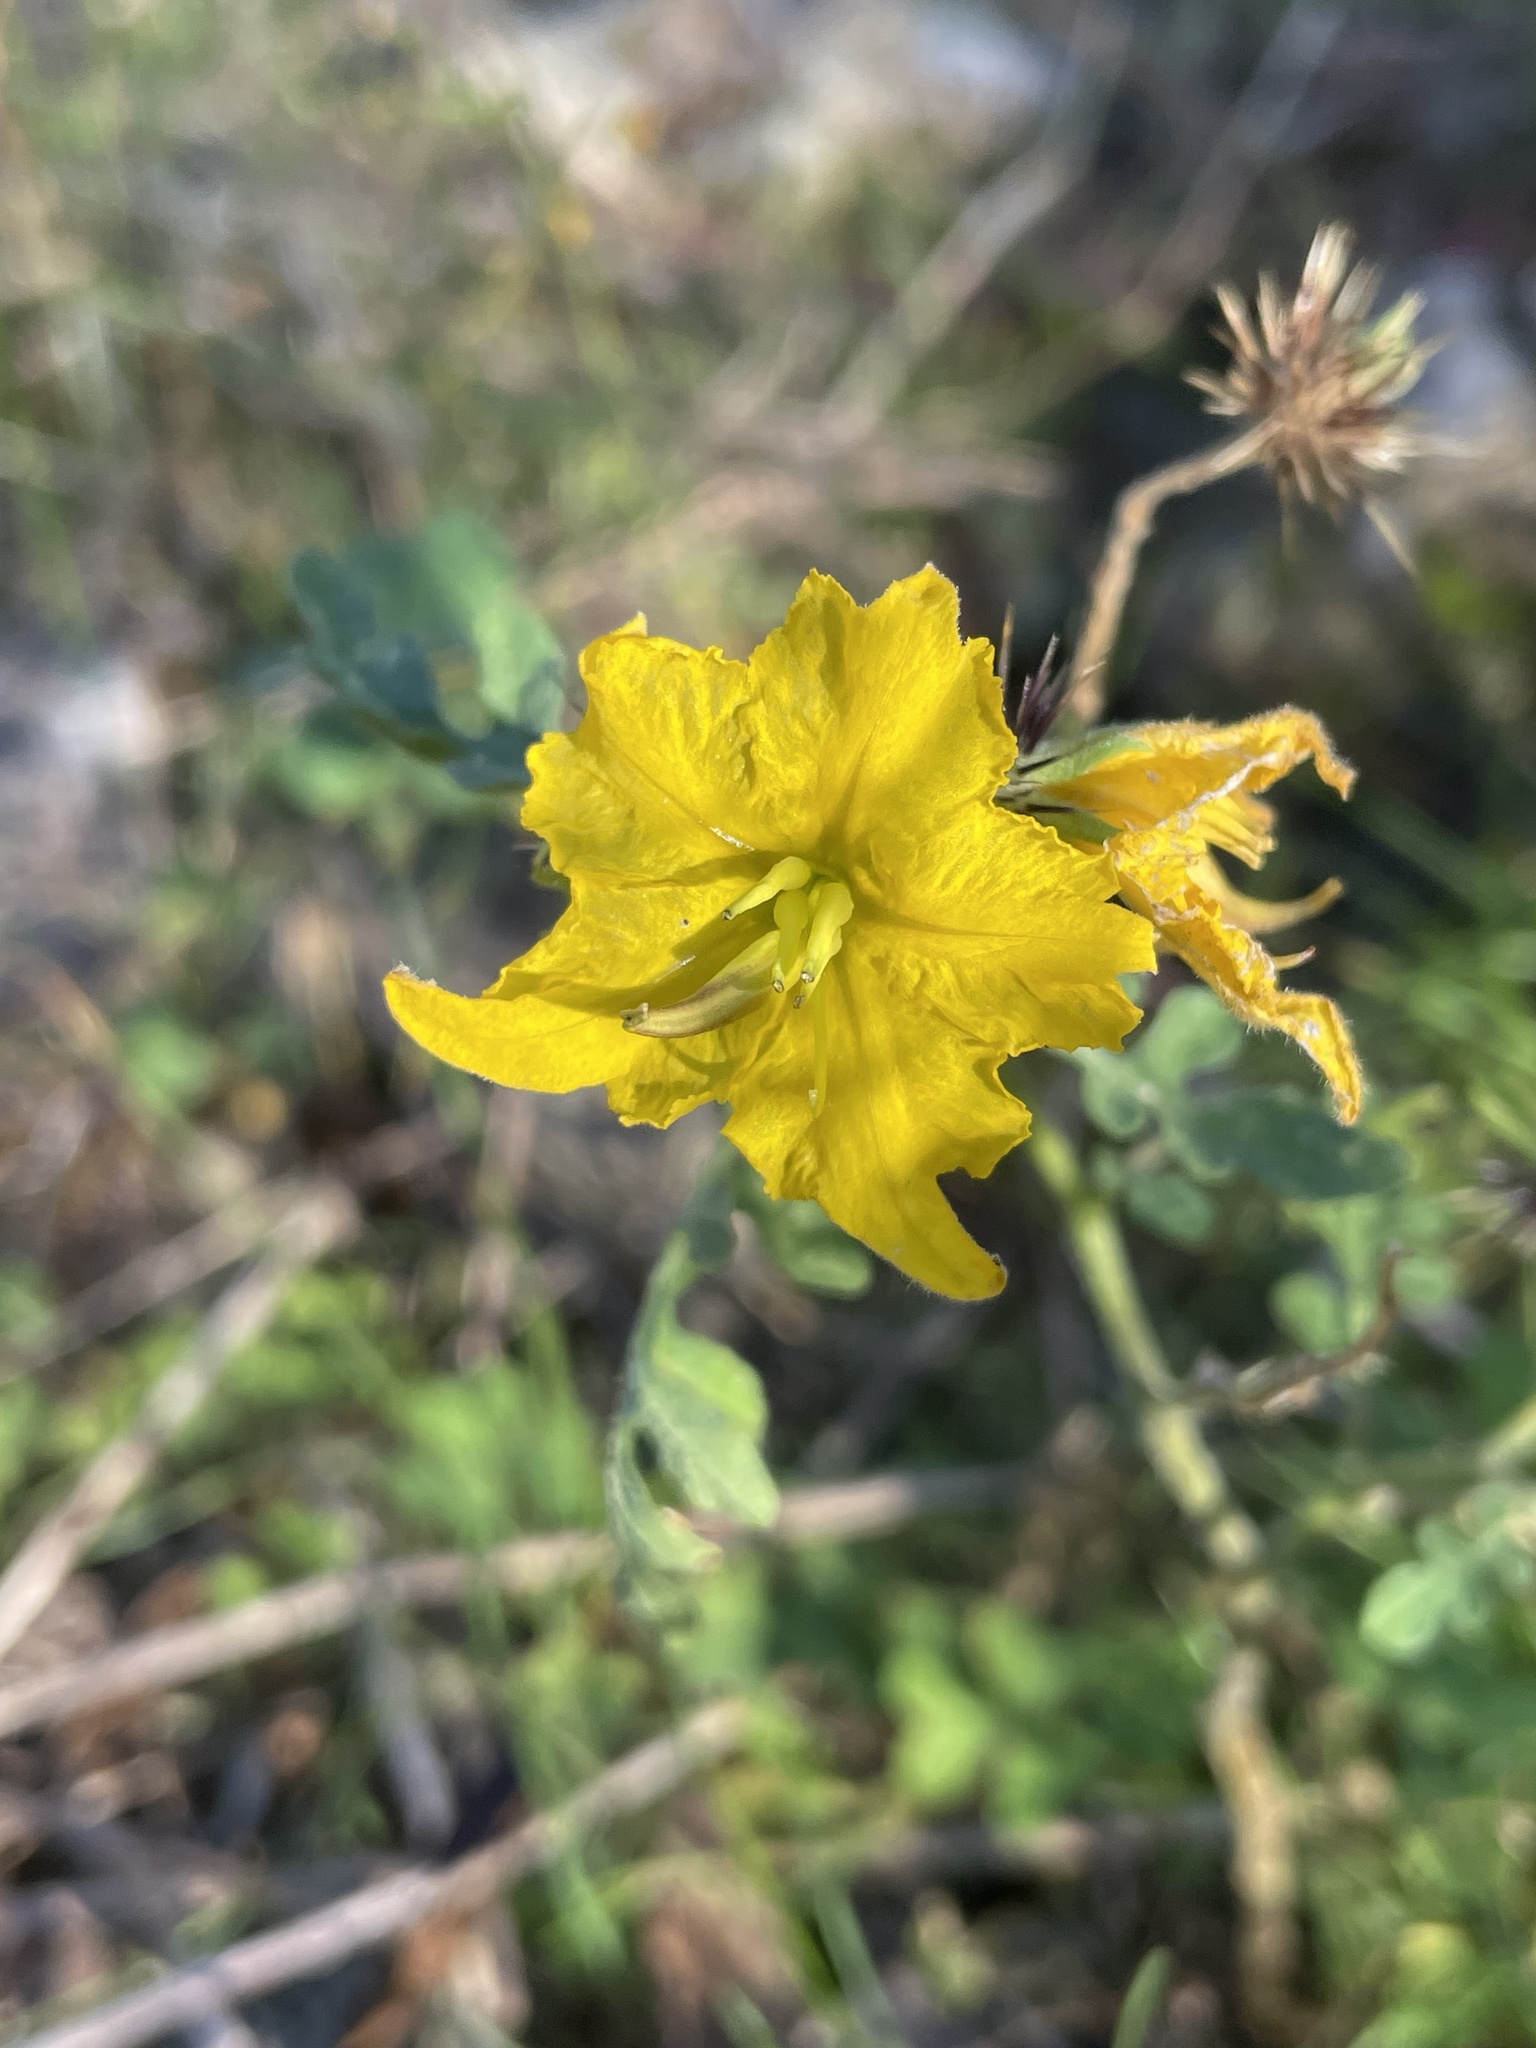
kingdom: Plantae
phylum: Tracheophyta
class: Magnoliopsida
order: Solanales
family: Solanaceae
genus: Solanum
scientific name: Solanum angustifolium
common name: Buffalobur nightshade
